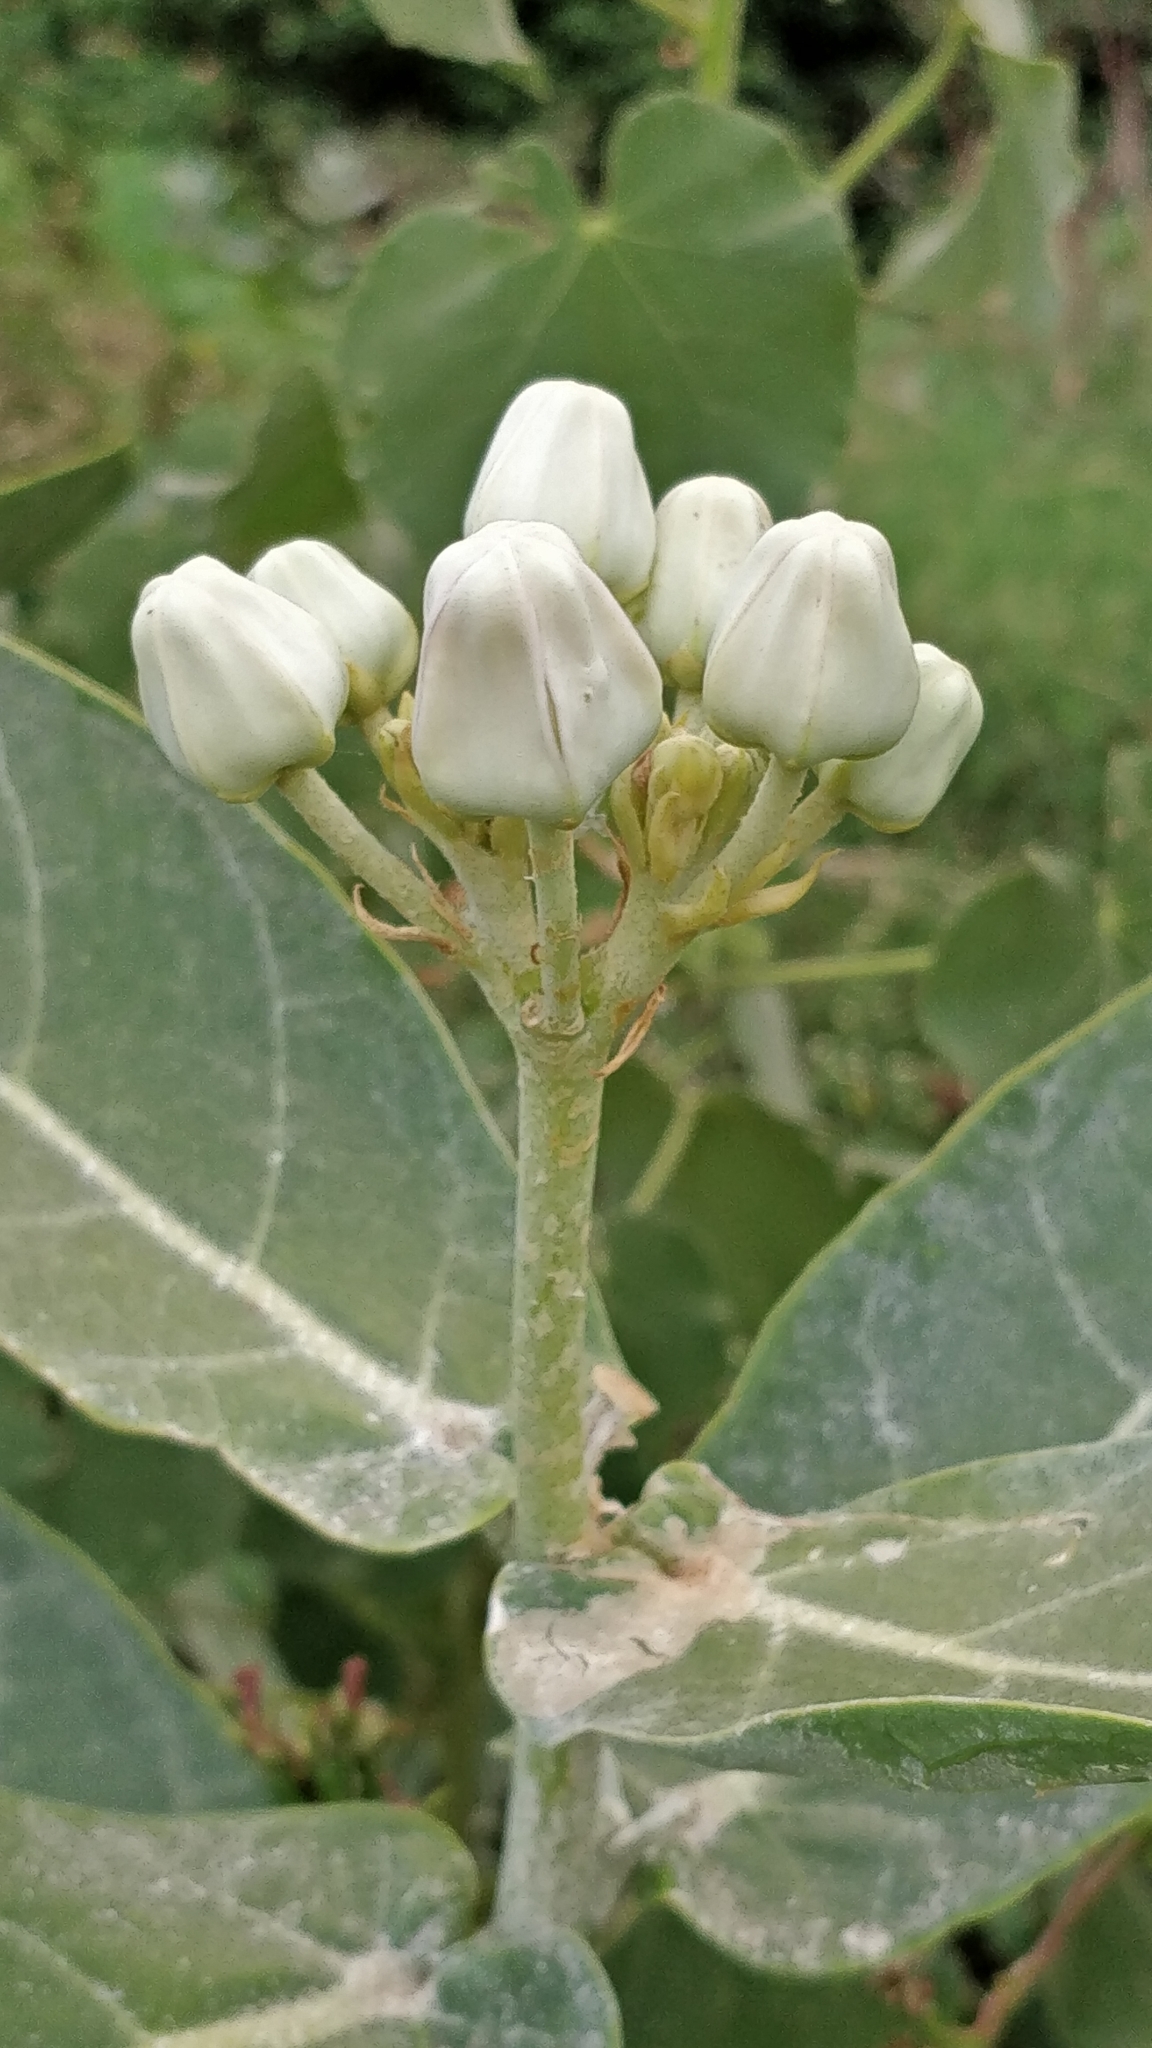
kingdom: Plantae
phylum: Tracheophyta
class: Magnoliopsida
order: Gentianales
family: Apocynaceae
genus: Calotropis
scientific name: Calotropis gigantea
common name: Crown flower
